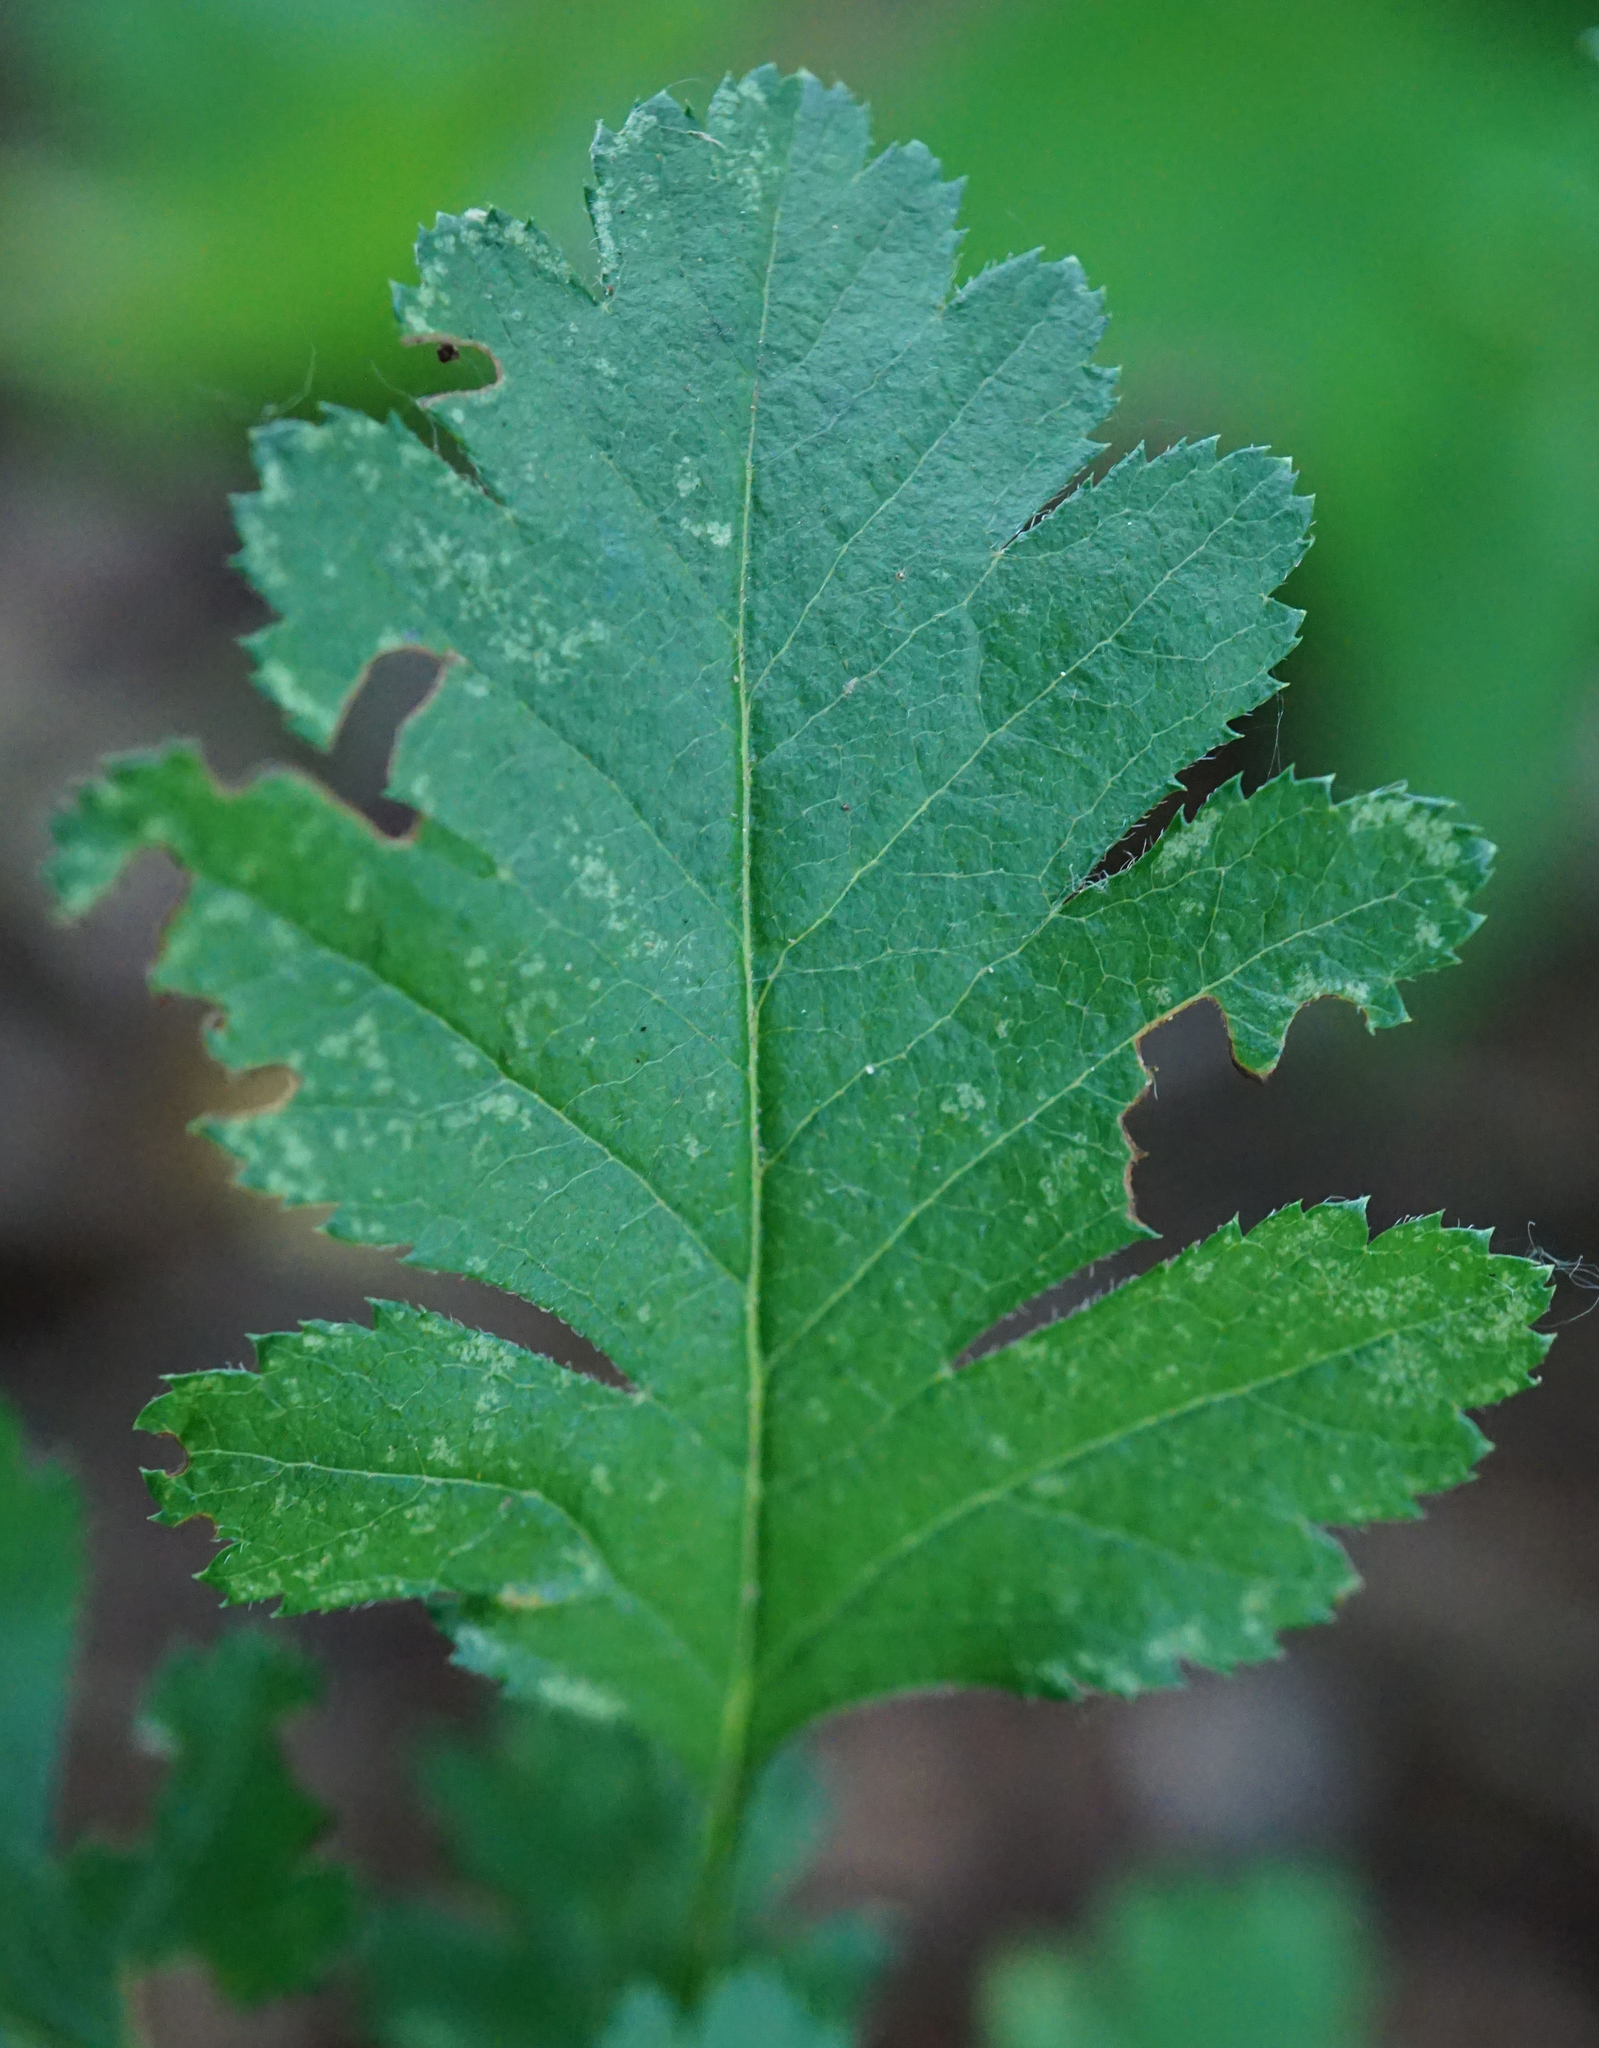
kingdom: Plantae
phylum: Tracheophyta
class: Magnoliopsida
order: Rosales
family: Rosaceae
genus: Crataegus
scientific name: Crataegus monogyna
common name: Hawthorn
